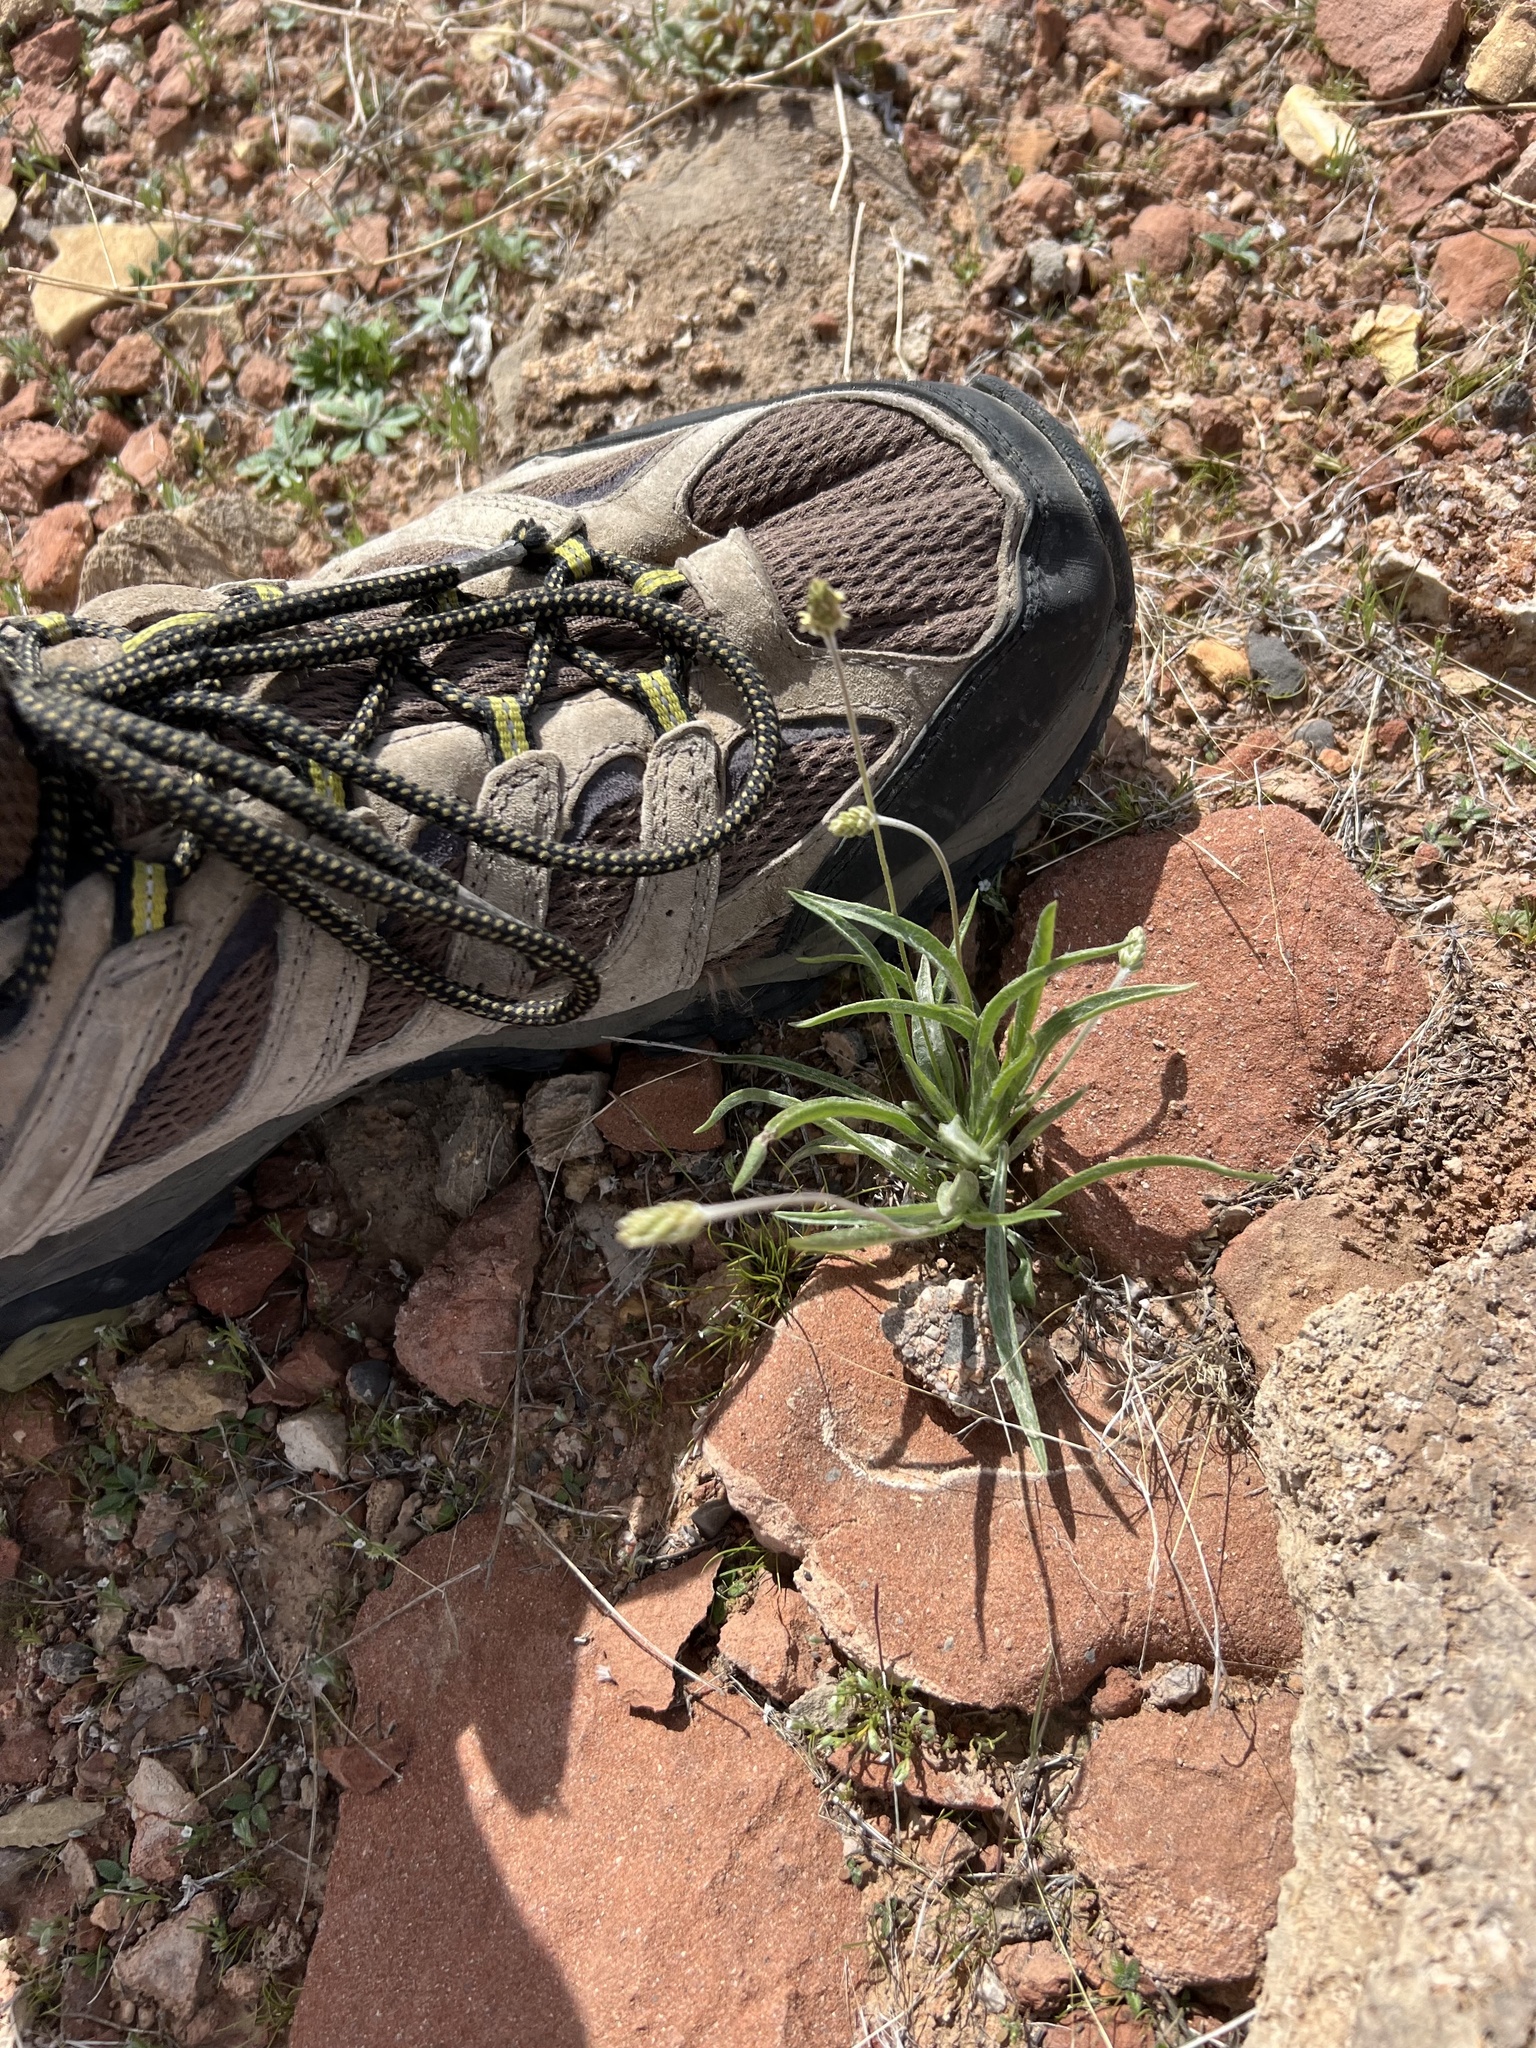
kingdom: Plantae
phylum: Tracheophyta
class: Magnoliopsida
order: Lamiales
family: Plantaginaceae
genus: Plantago
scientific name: Plantago ovata
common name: Blond plantain
